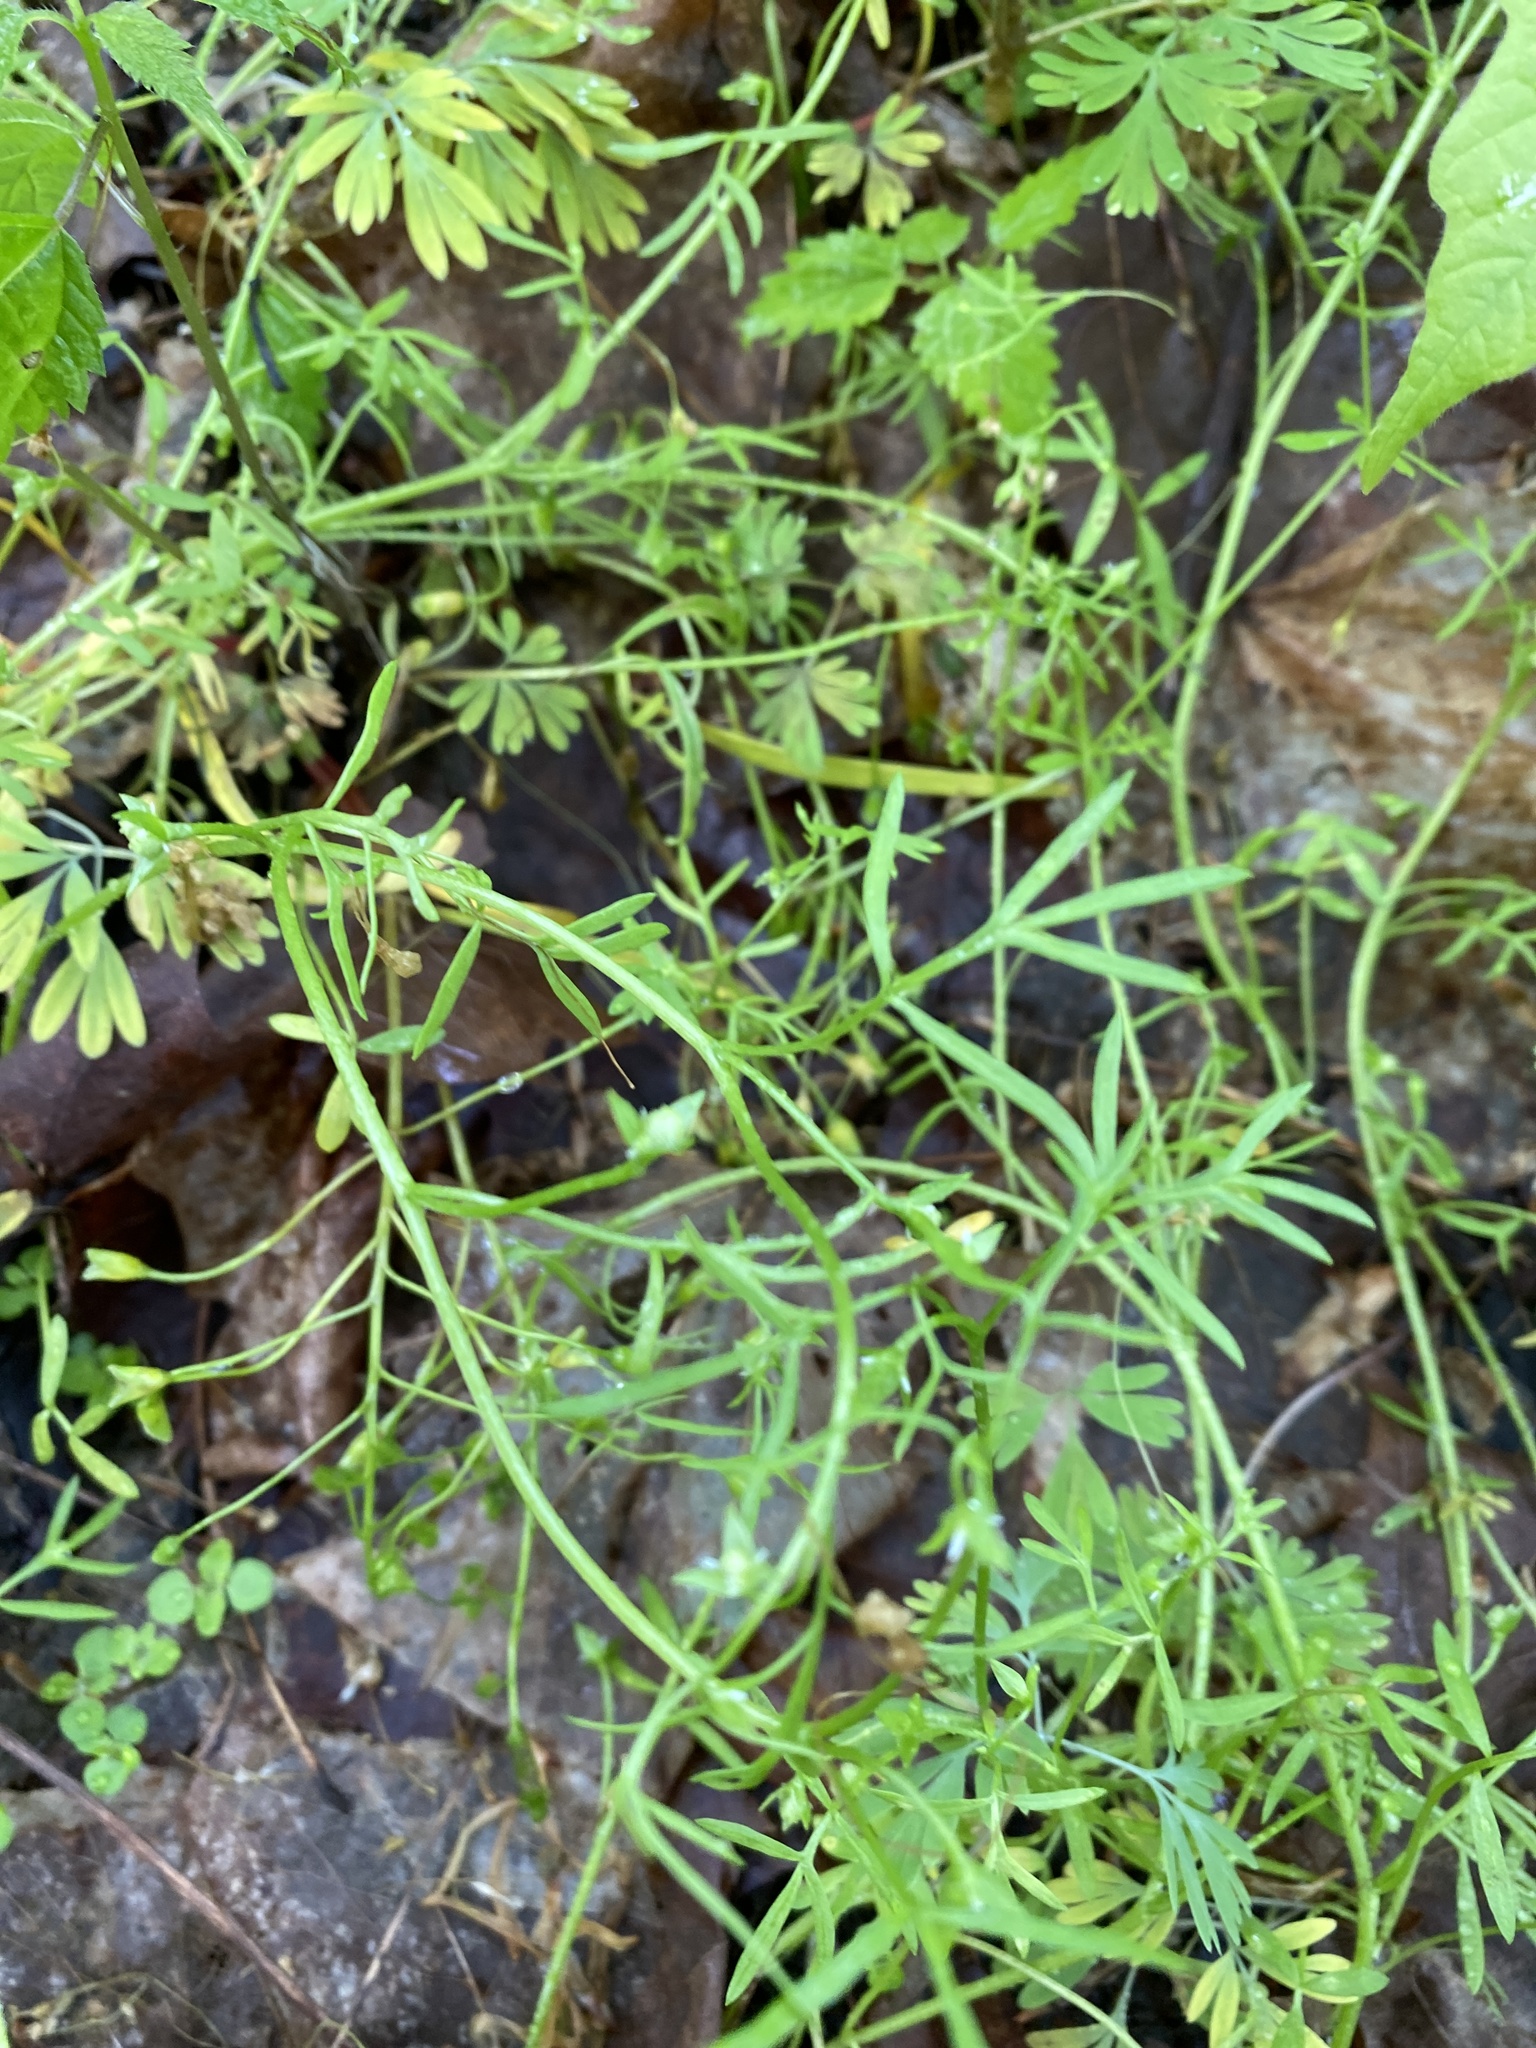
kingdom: Plantae
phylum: Tracheophyta
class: Magnoliopsida
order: Brassicales
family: Limnanthaceae
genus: Floerkea
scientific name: Floerkea proserpinacoides
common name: False mermaid
